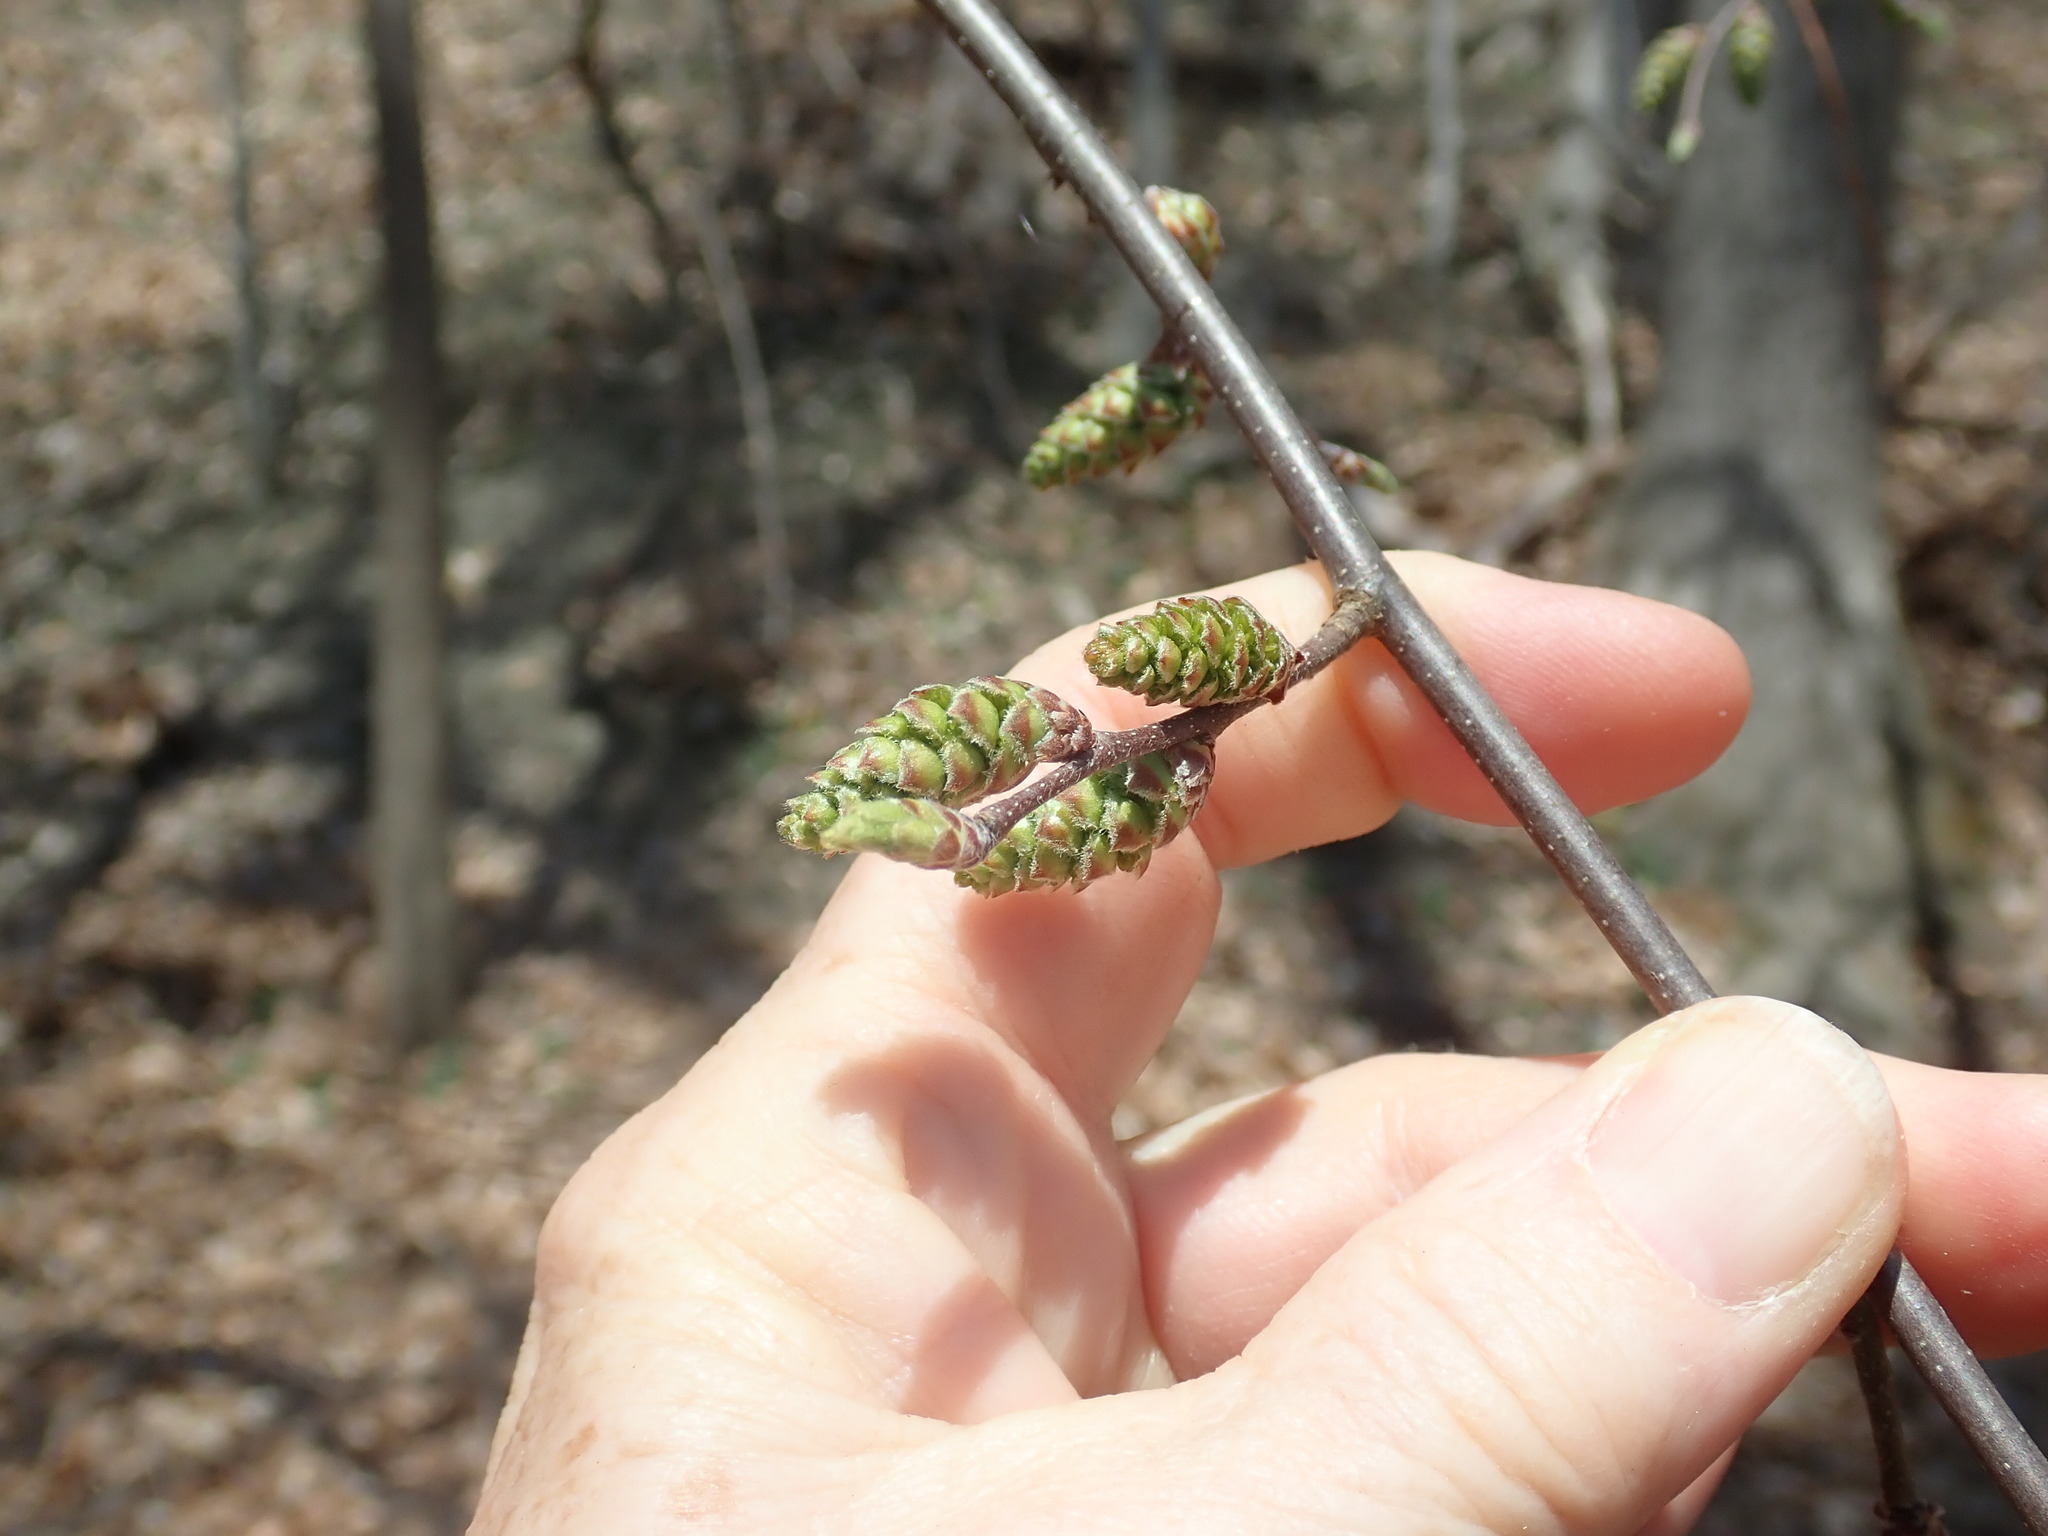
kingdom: Plantae
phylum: Tracheophyta
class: Magnoliopsida
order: Fagales
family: Betulaceae
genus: Carpinus
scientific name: Carpinus caroliniana
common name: American hornbeam
